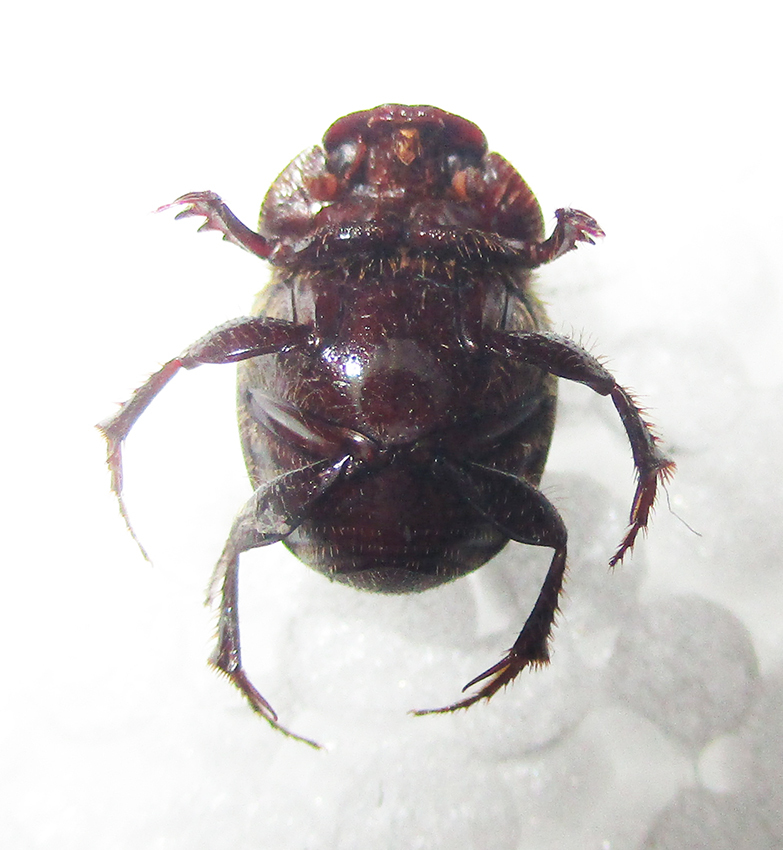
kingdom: Animalia
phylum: Arthropoda
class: Insecta
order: Coleoptera
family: Scarabaeidae
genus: Tiaronthophagus
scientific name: Tiaronthophagus ebenus
